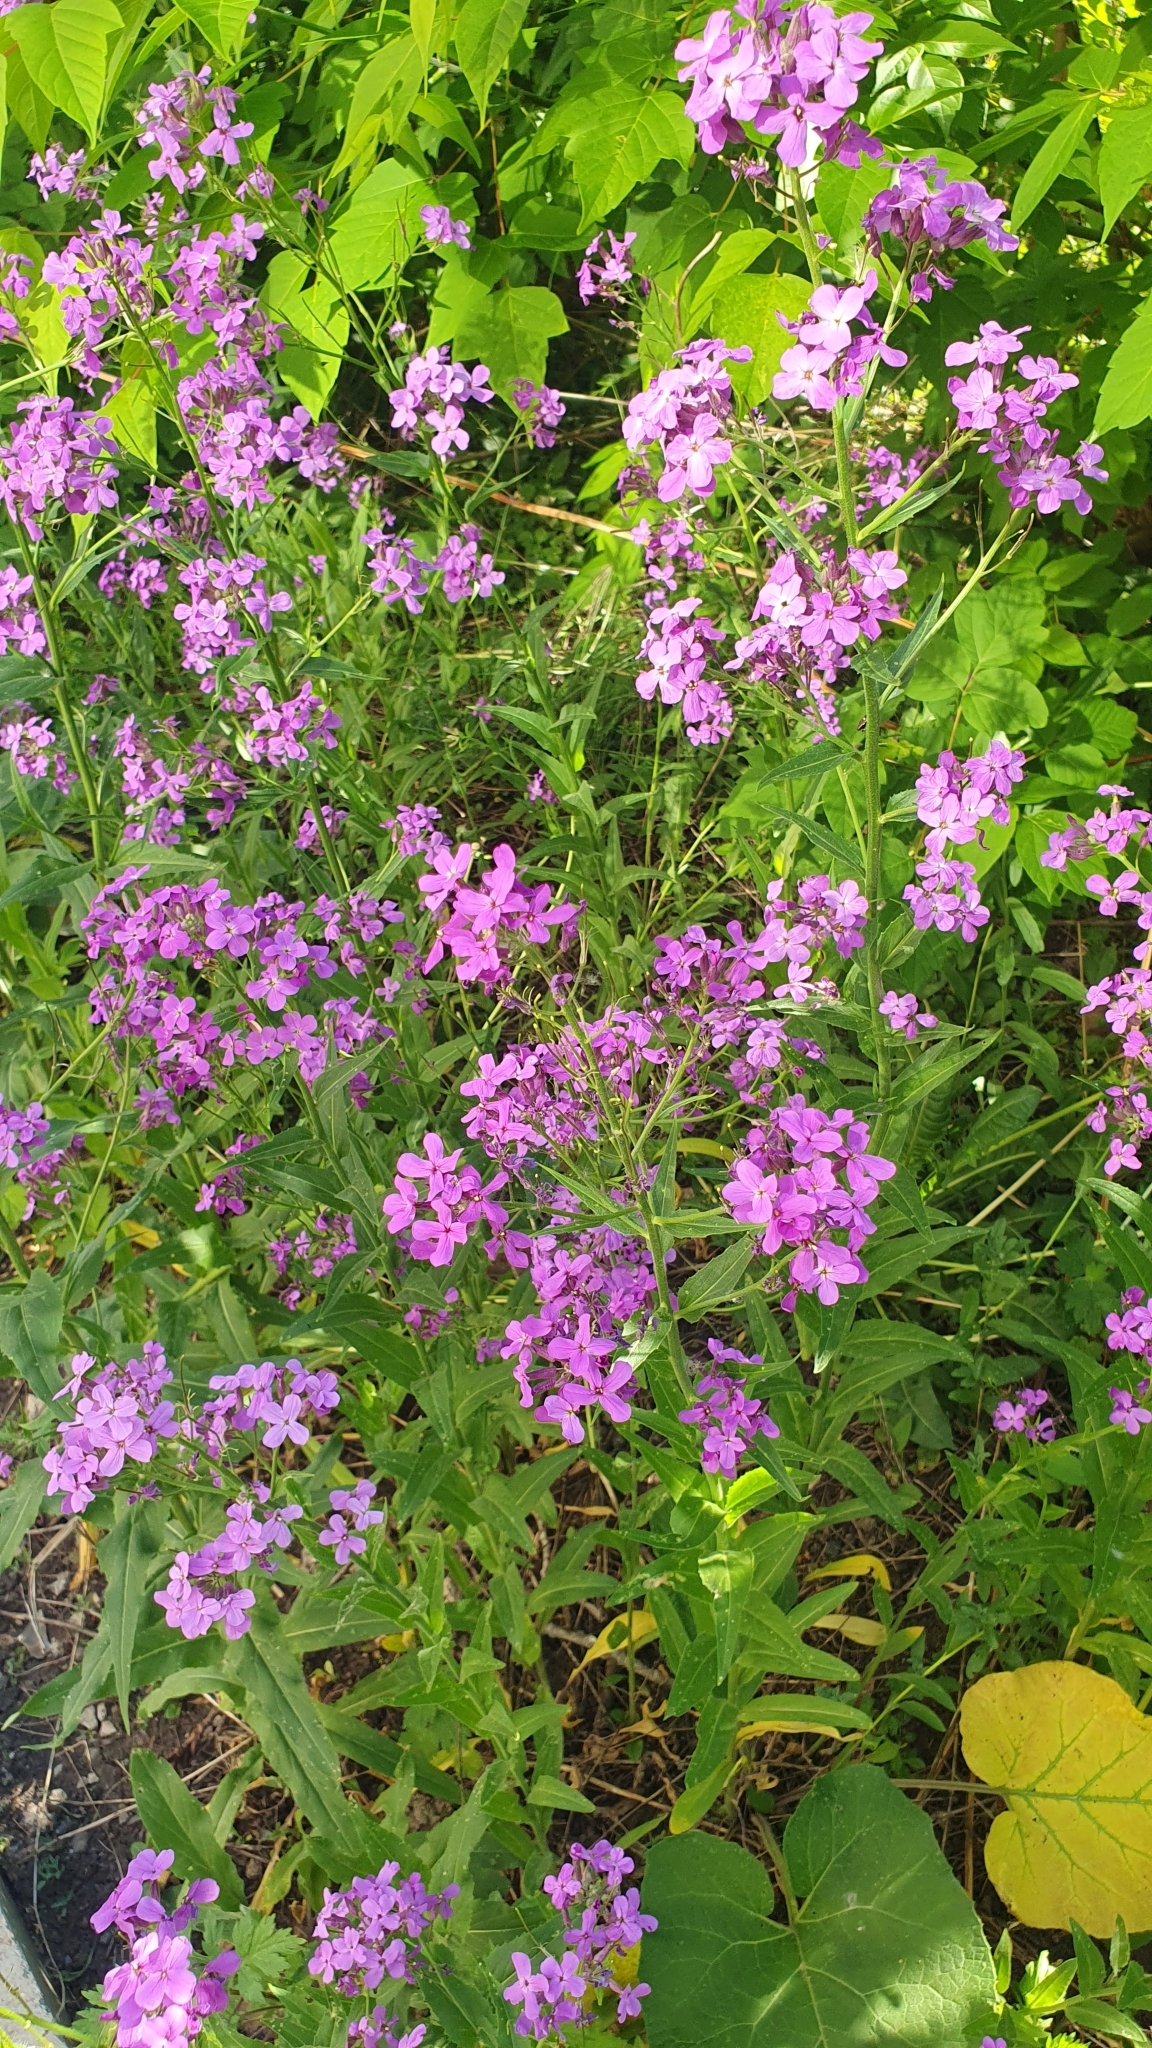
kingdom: Plantae
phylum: Tracheophyta
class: Magnoliopsida
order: Brassicales
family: Brassicaceae
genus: Hesperis
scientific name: Hesperis matronalis
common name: Dame's-violet
